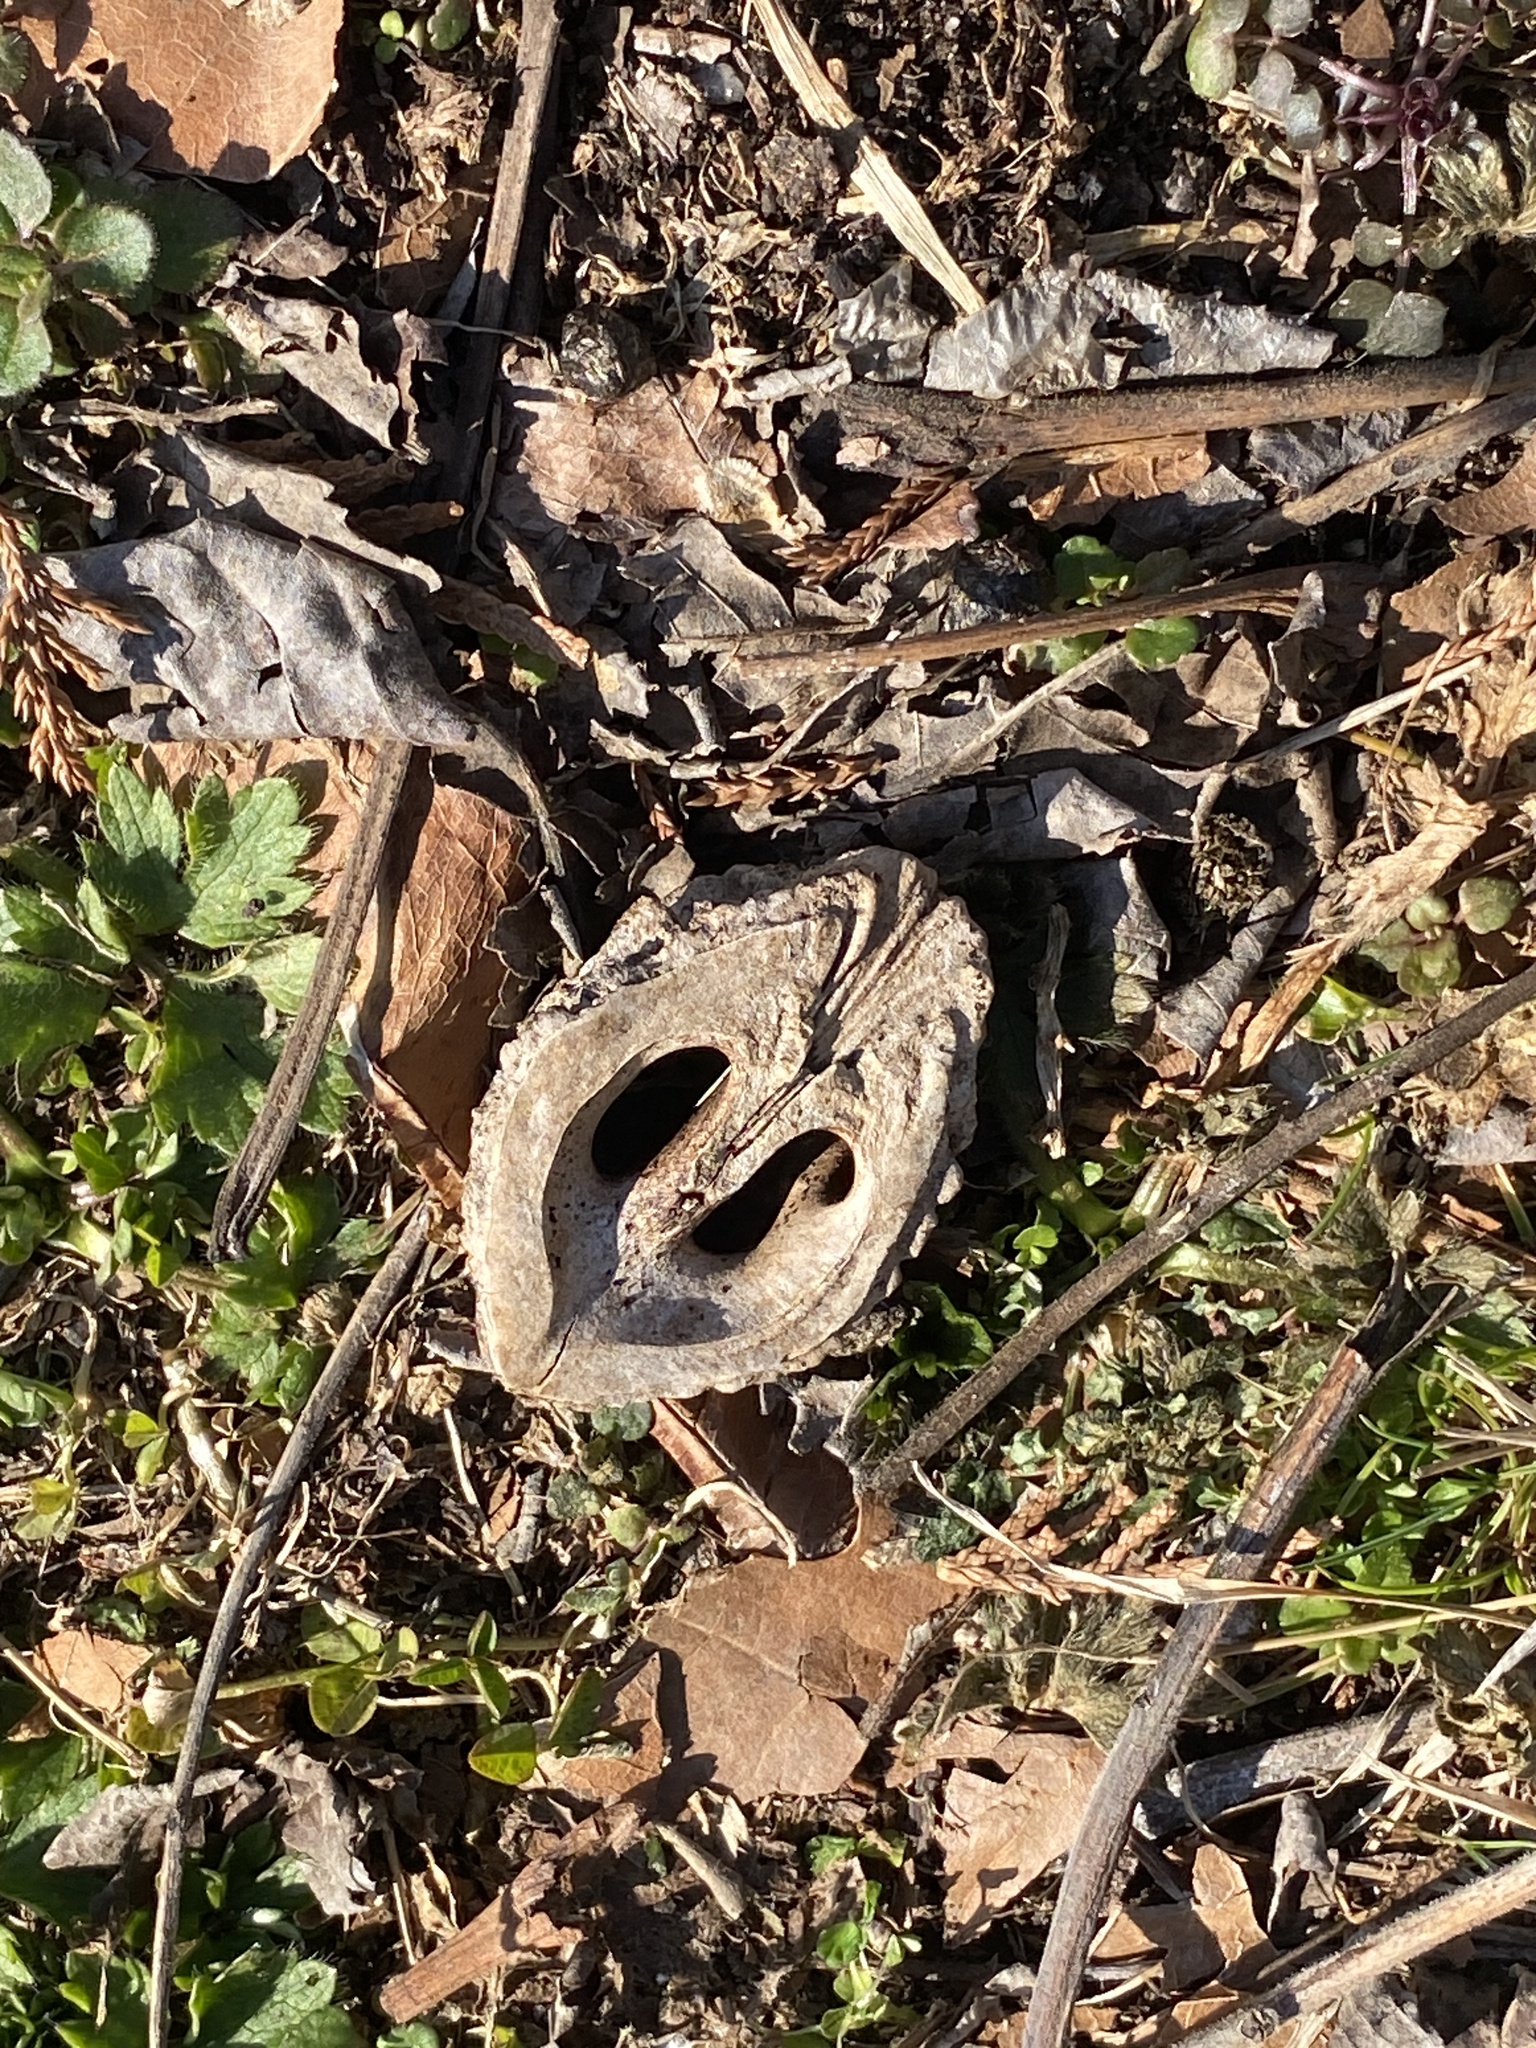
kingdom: Plantae
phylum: Tracheophyta
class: Magnoliopsida
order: Fagales
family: Juglandaceae
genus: Juglans
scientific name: Juglans nigra
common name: Black walnut
